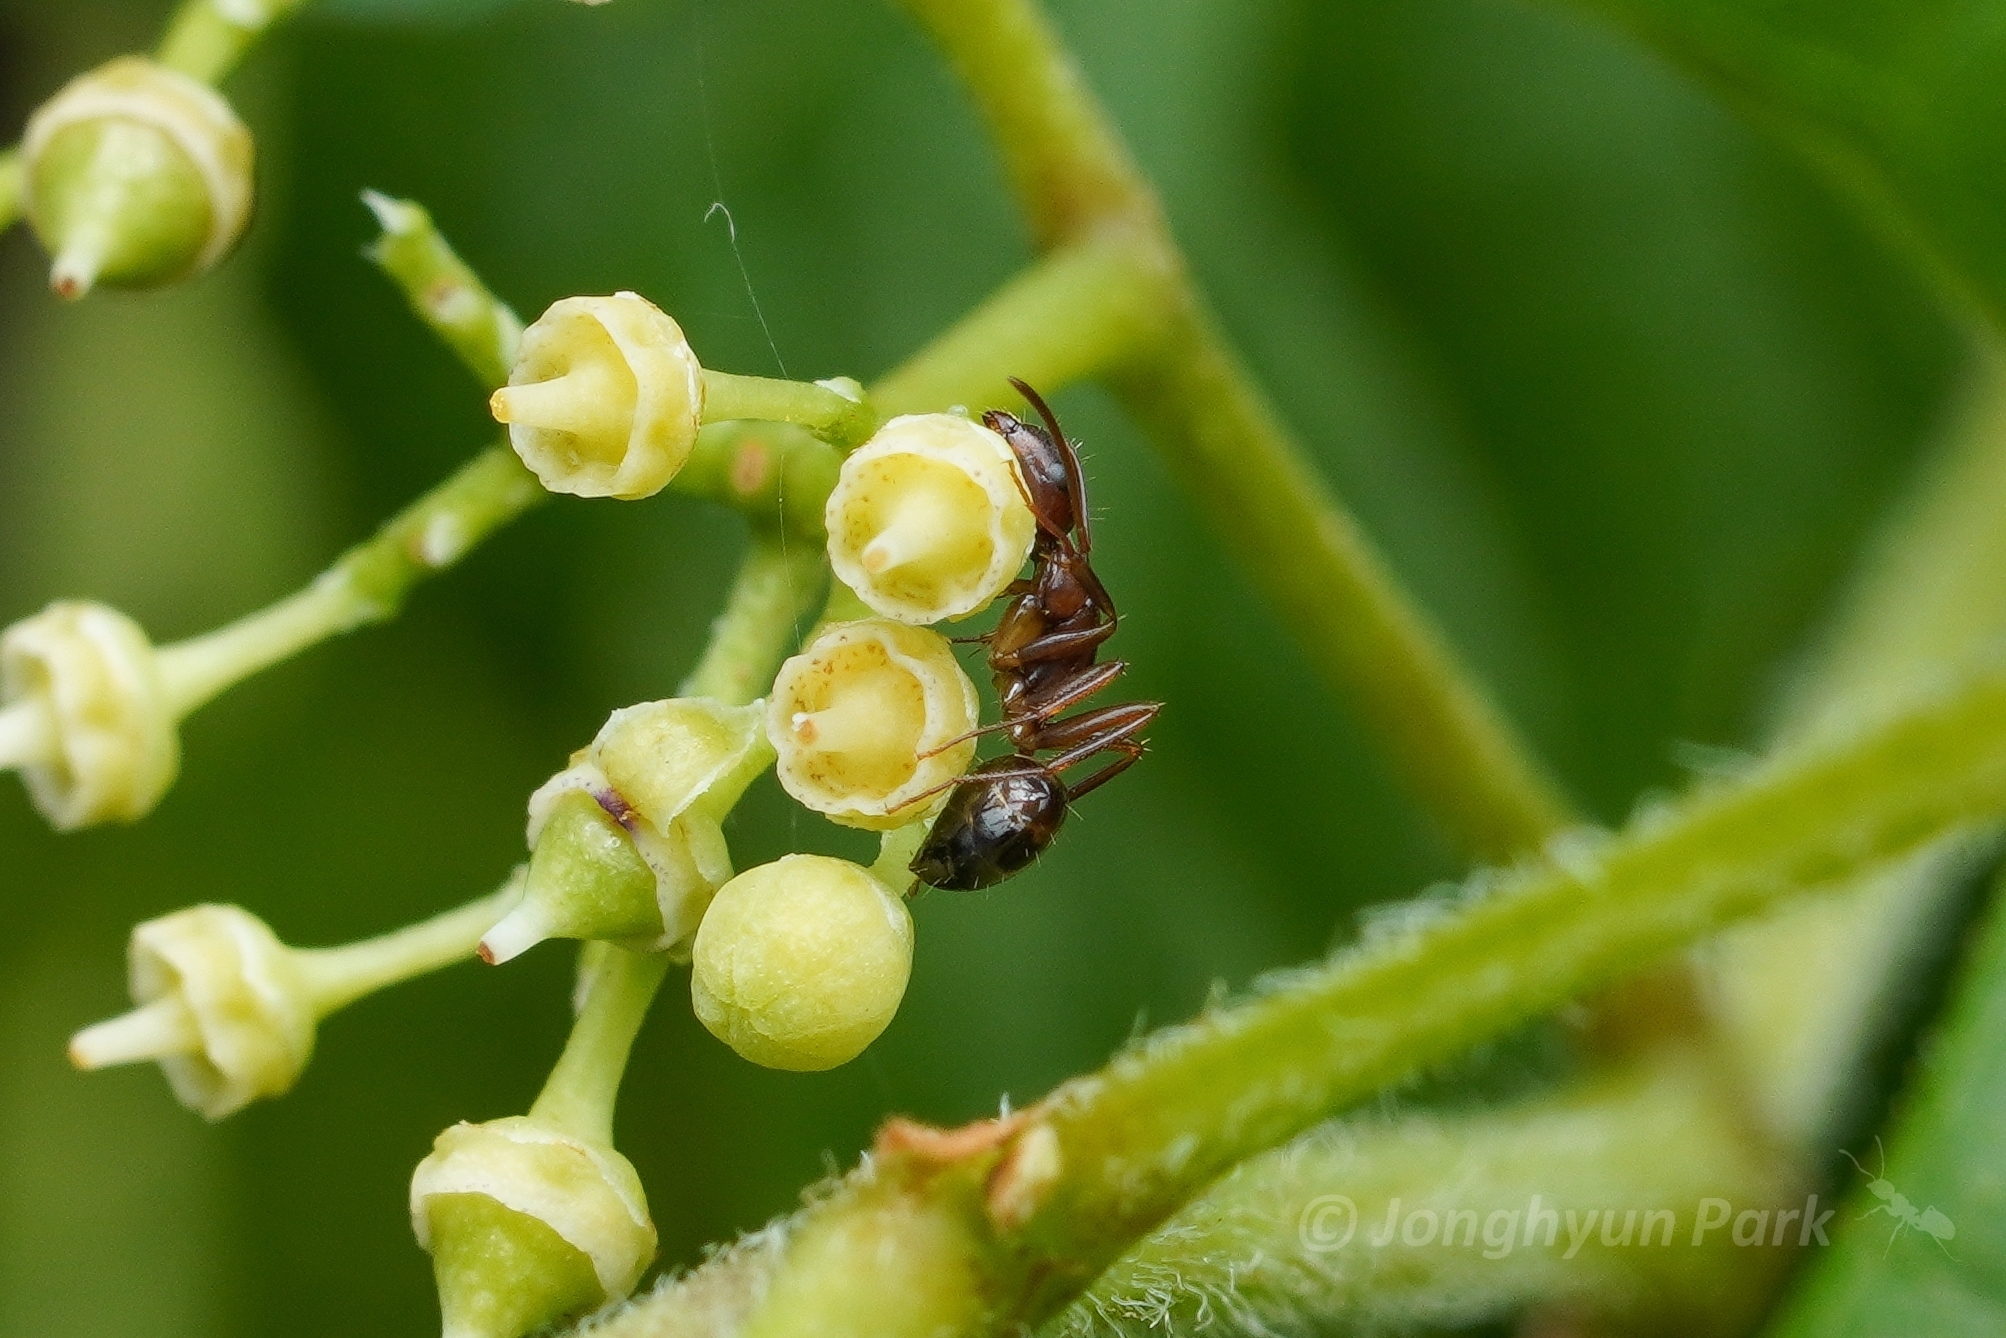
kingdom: Animalia
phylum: Arthropoda
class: Insecta
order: Hymenoptera
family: Formicidae
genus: Camponotus
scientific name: Camponotus subbarbatus
